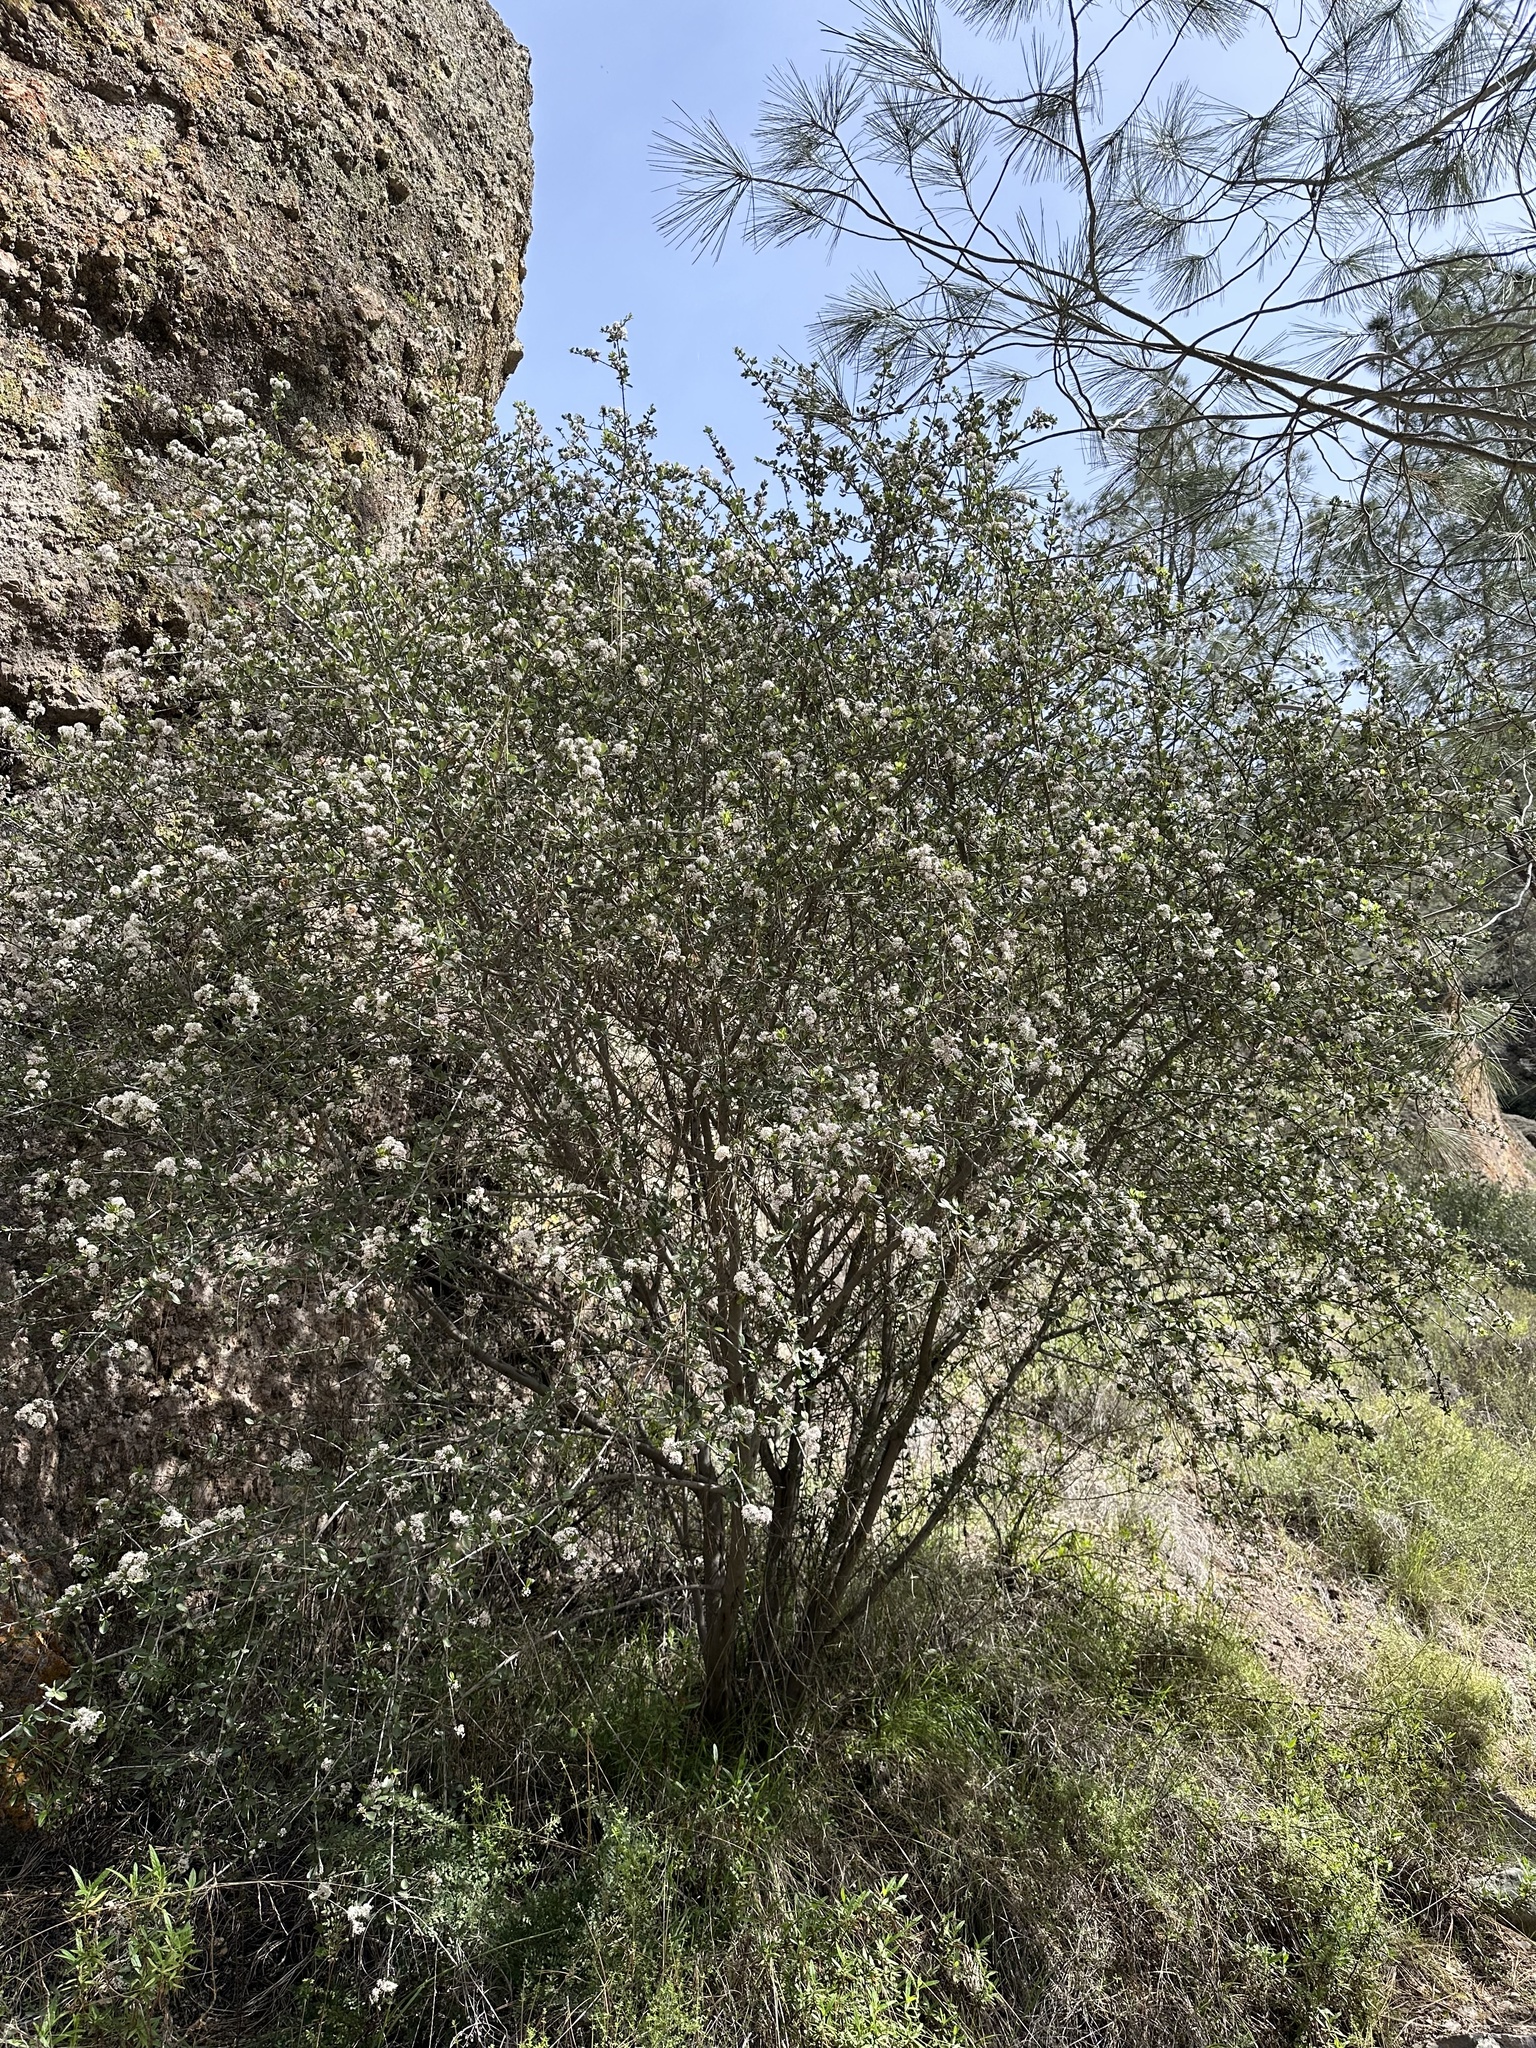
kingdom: Plantae
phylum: Tracheophyta
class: Magnoliopsida
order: Rosales
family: Rhamnaceae
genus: Ceanothus
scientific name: Ceanothus cuneatus
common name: Cuneate ceanothus
